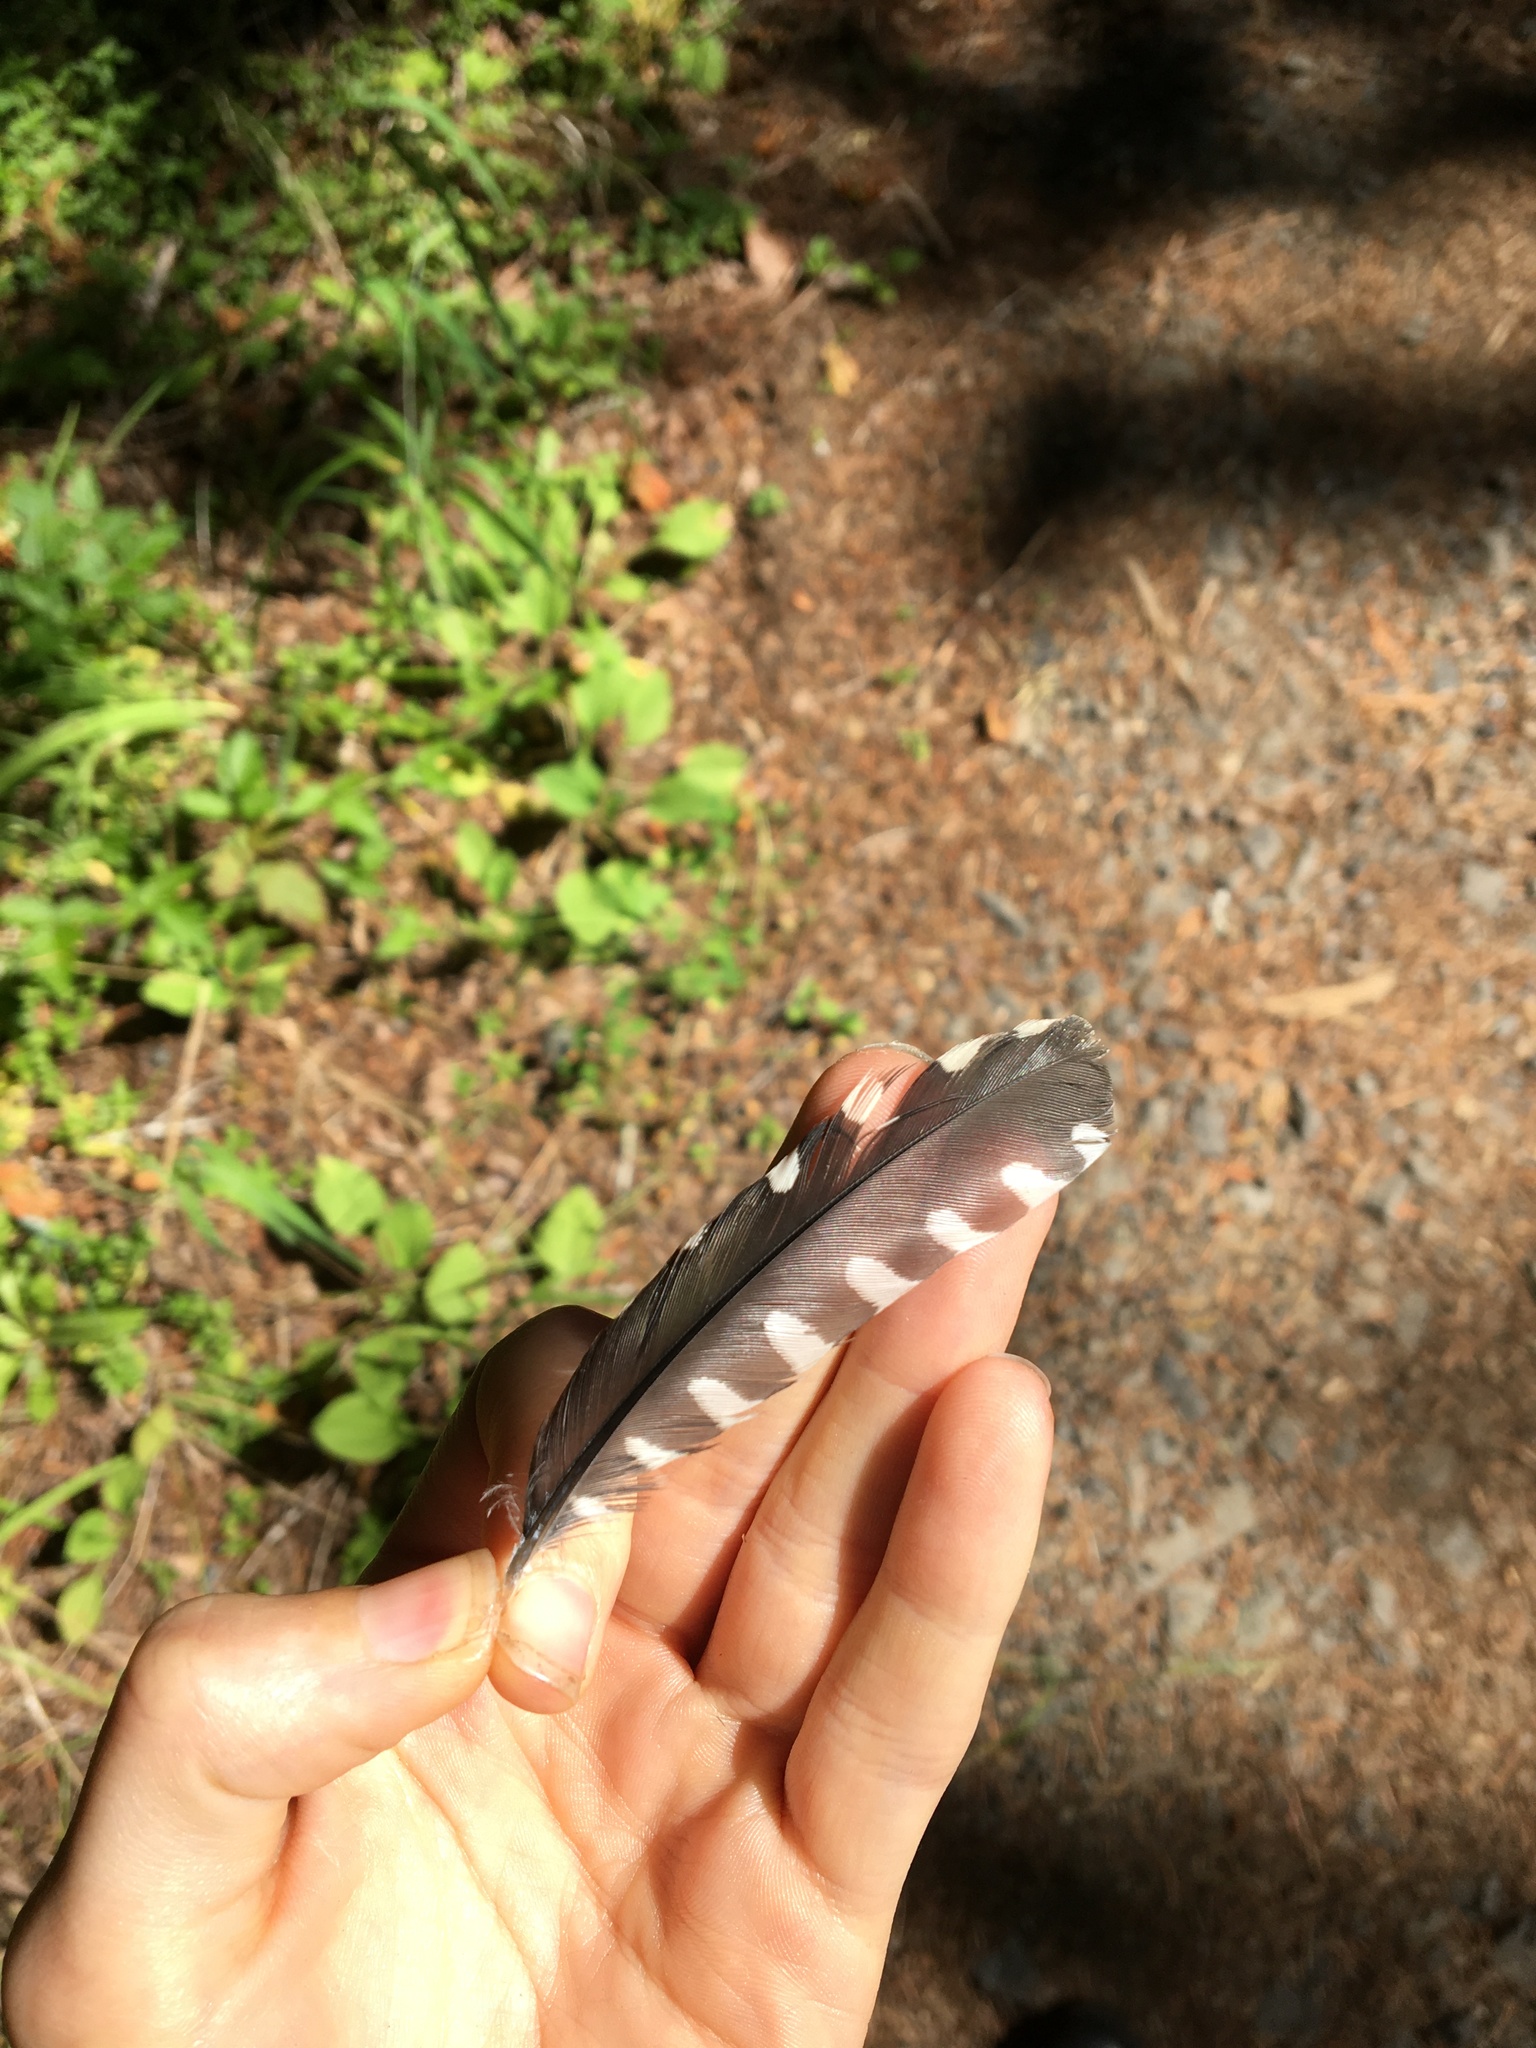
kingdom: Animalia
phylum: Chordata
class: Aves
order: Piciformes
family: Picidae
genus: Sphyrapicus
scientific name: Sphyrapicus ruber
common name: Red-breasted sapsucker
